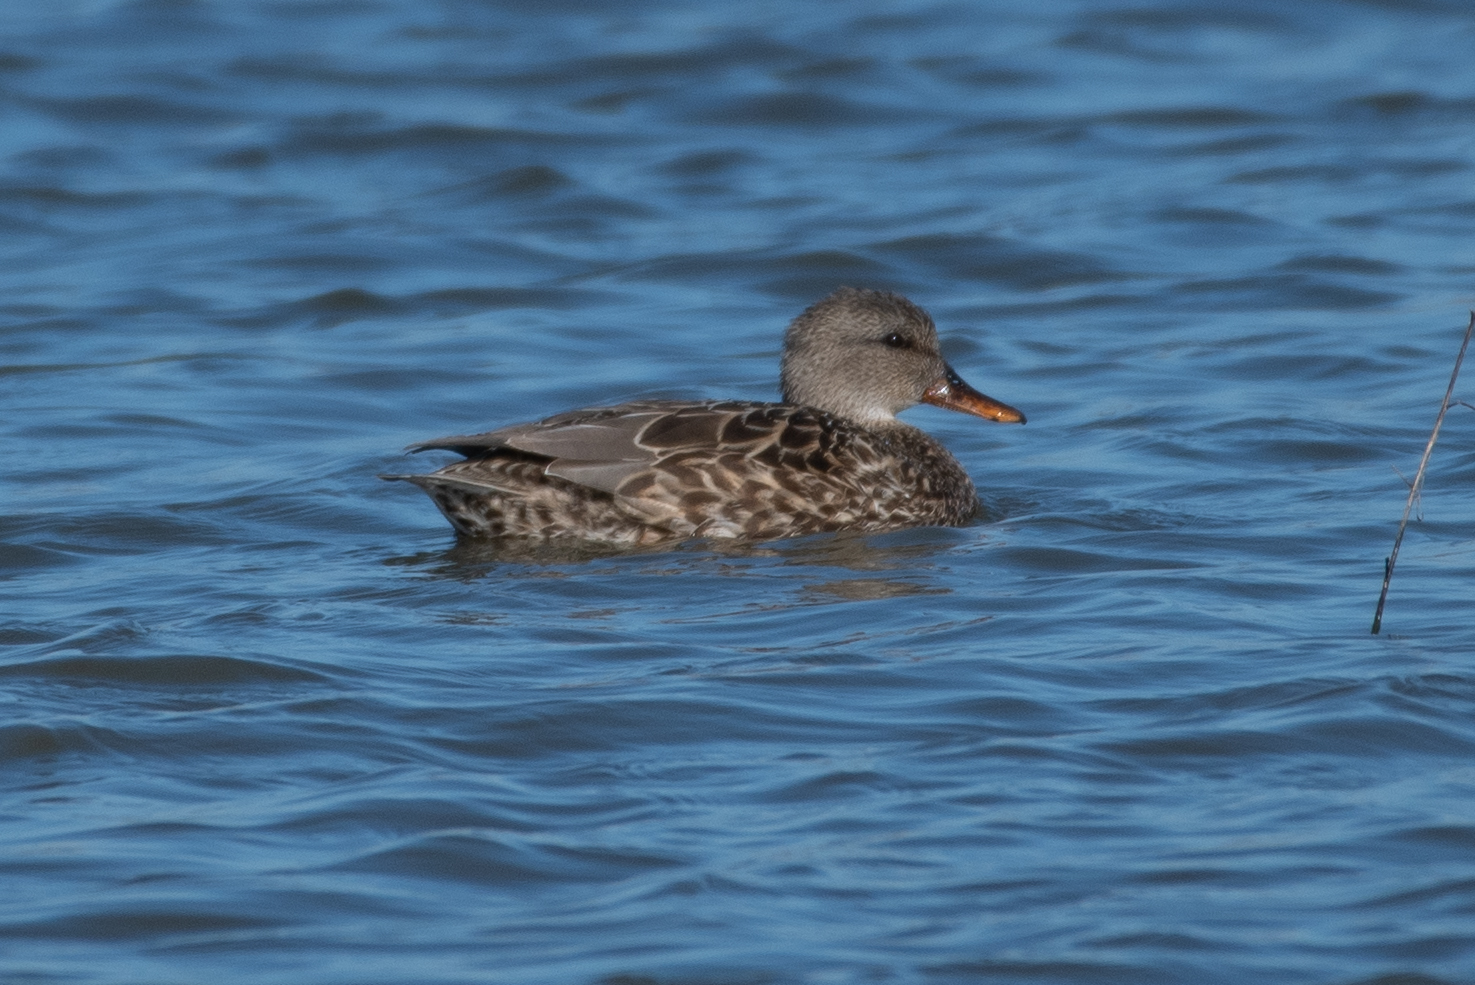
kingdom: Animalia
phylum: Chordata
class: Aves
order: Anseriformes
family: Anatidae
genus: Mareca
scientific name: Mareca strepera
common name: Gadwall
